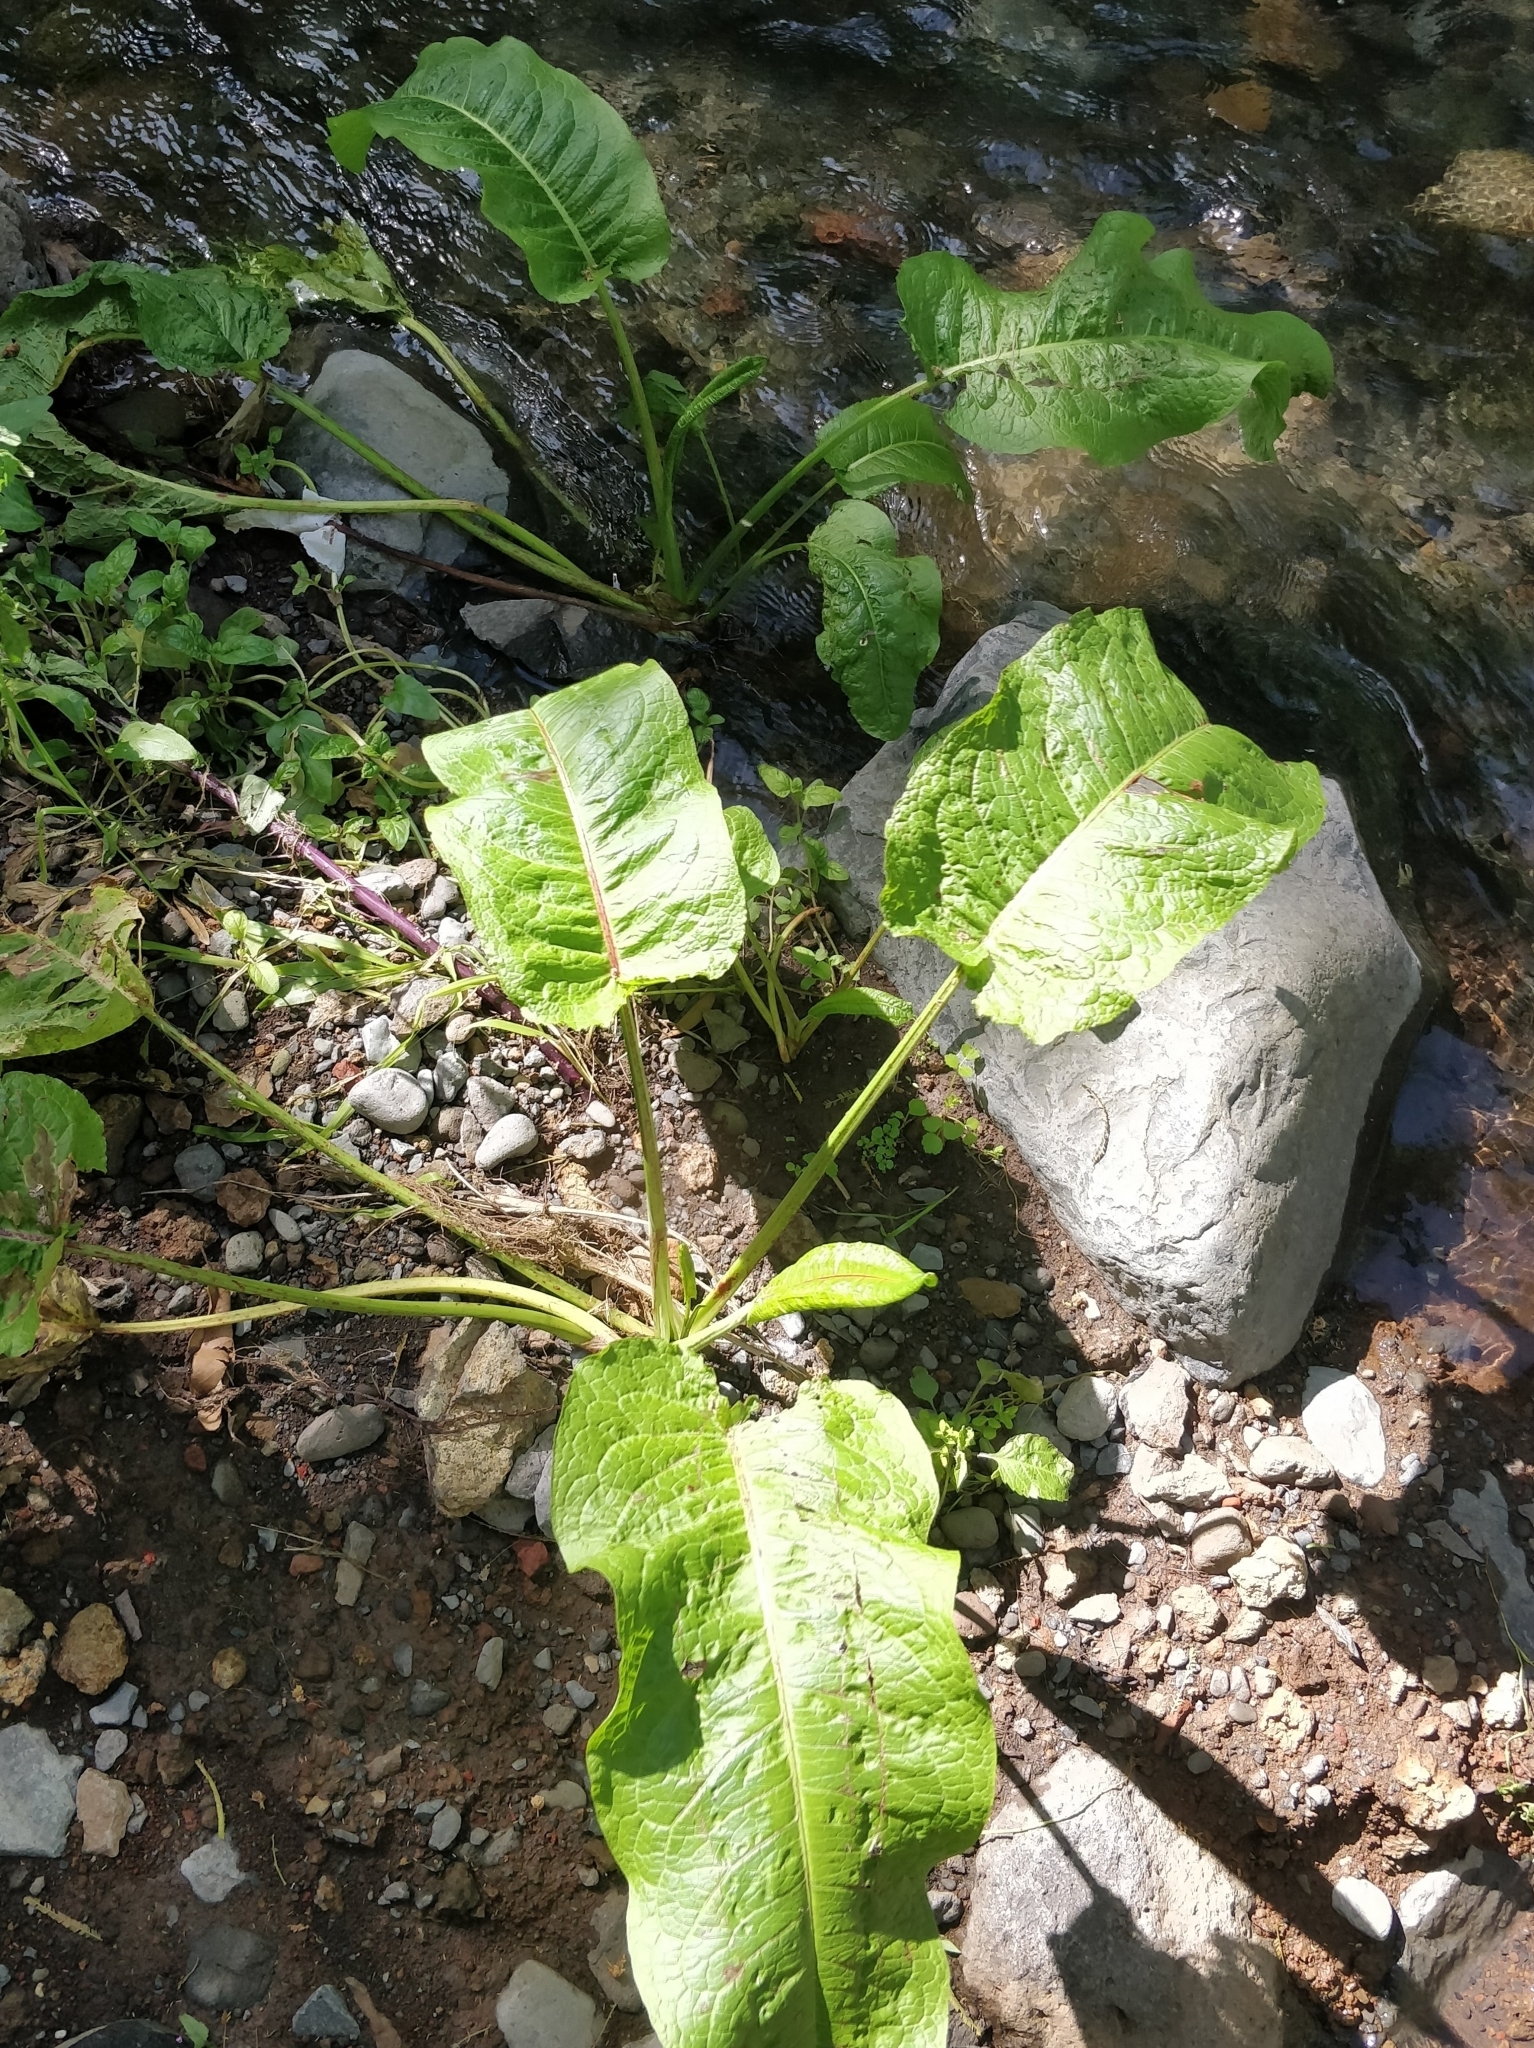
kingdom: Plantae
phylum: Tracheophyta
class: Magnoliopsida
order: Caryophyllales
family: Polygonaceae
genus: Rumex
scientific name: Rumex obtusifolius
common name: Bitter dock
